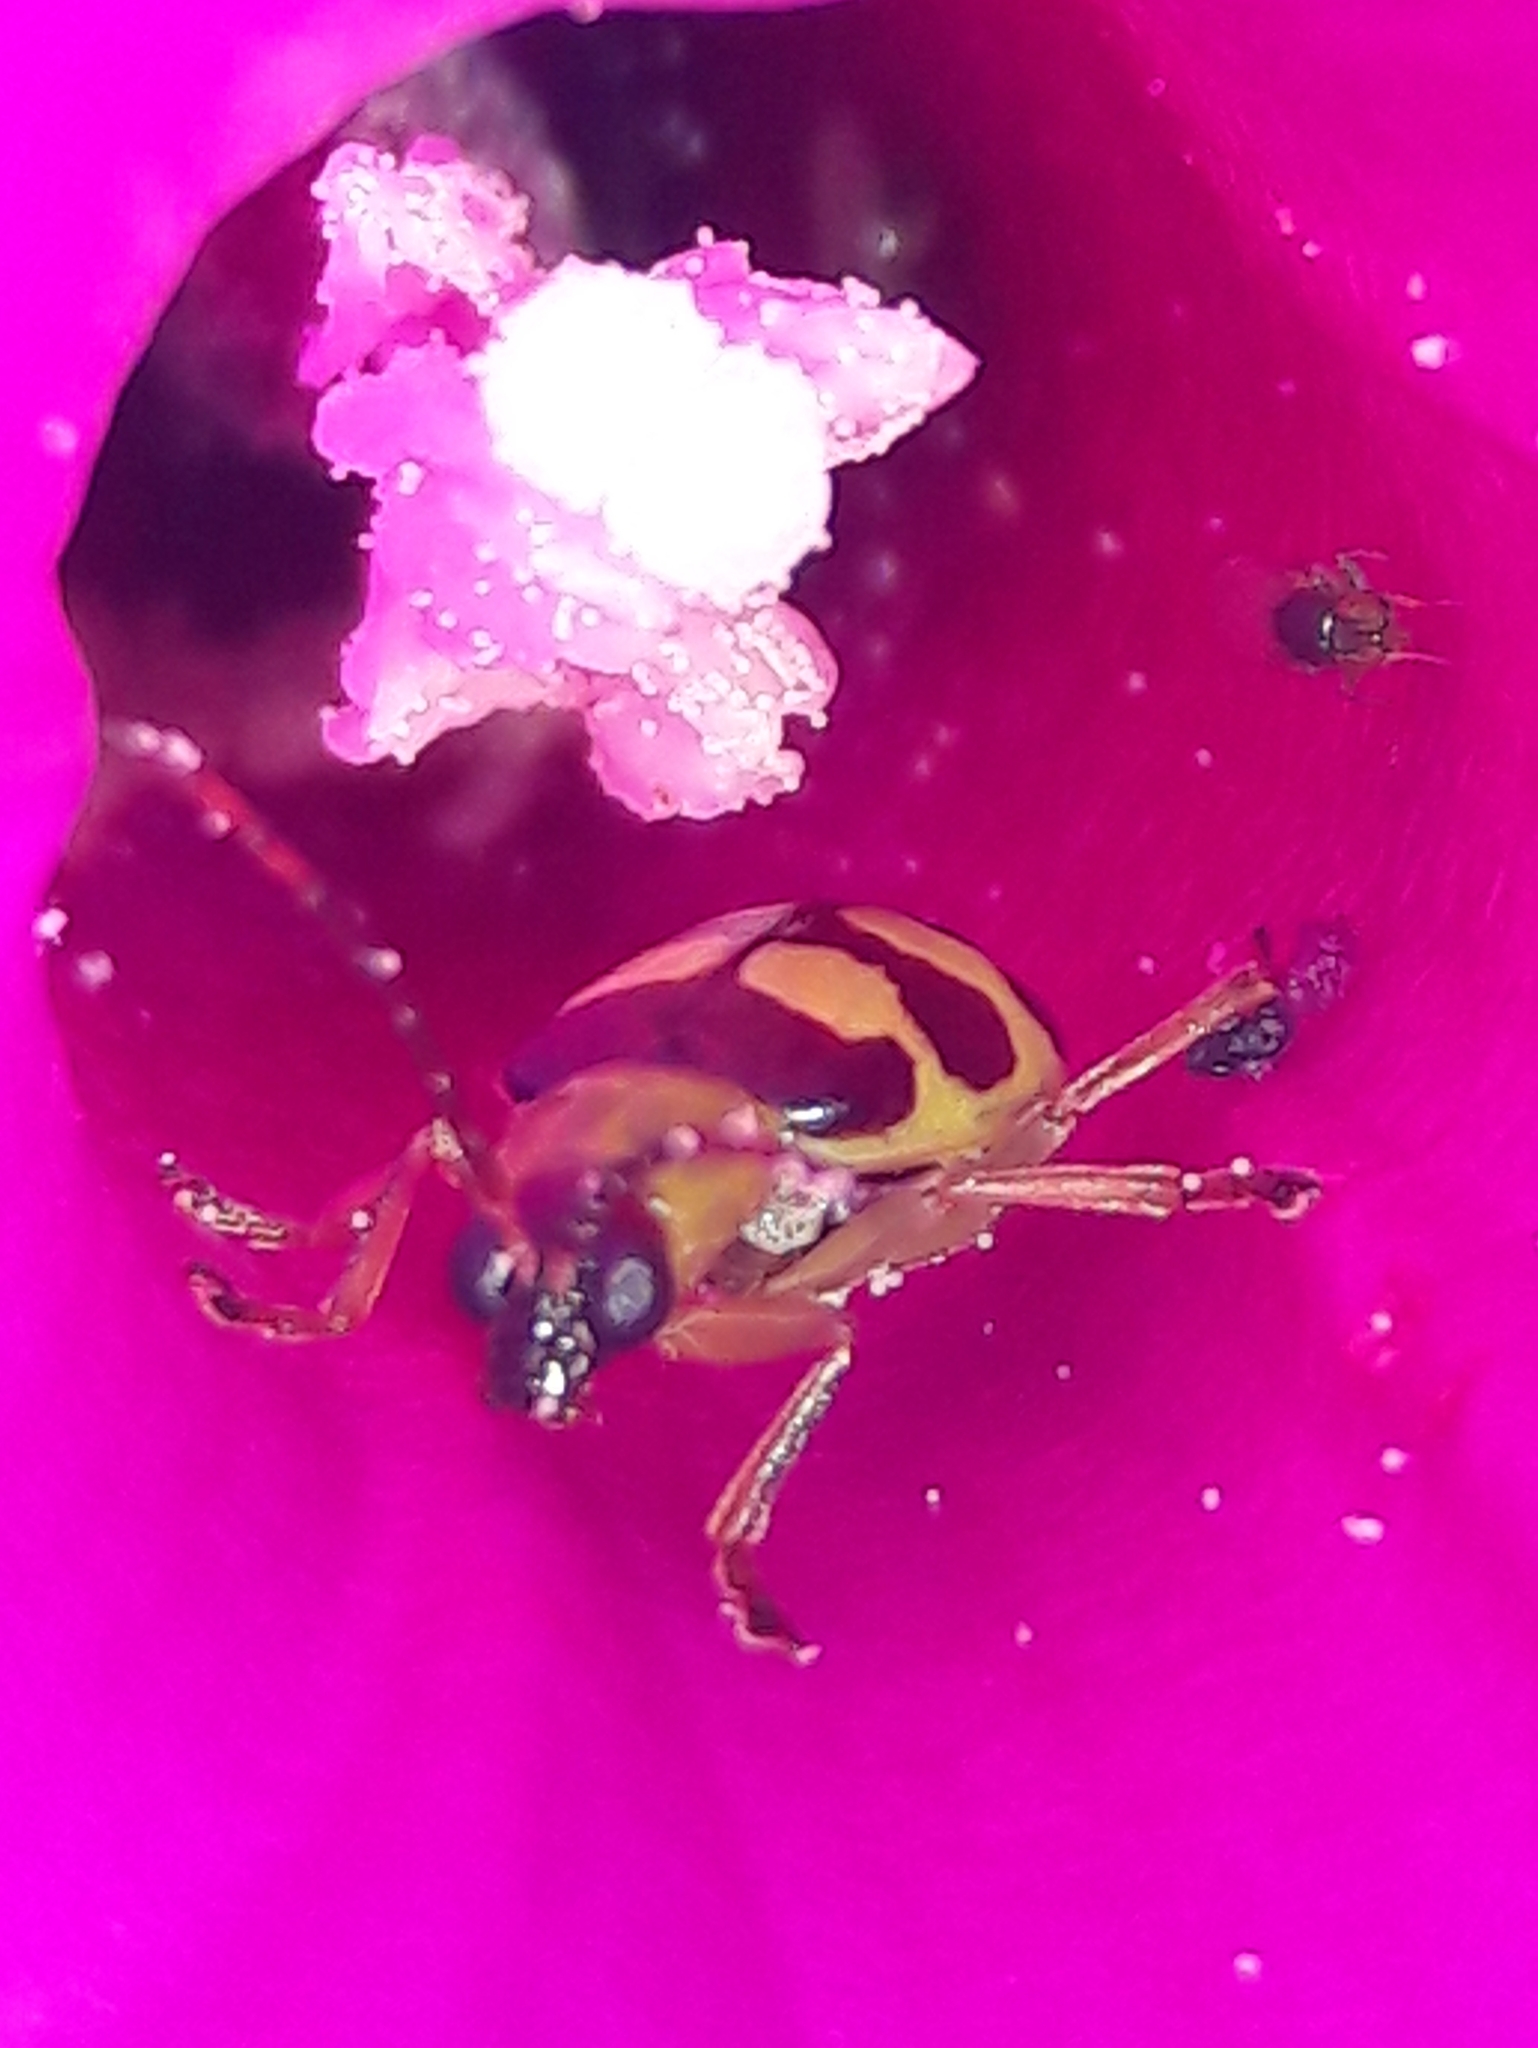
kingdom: Animalia
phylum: Arthropoda
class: Insecta
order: Coleoptera
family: Chrysomelidae
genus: Basiprionota
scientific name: Basiprionota sinuata
